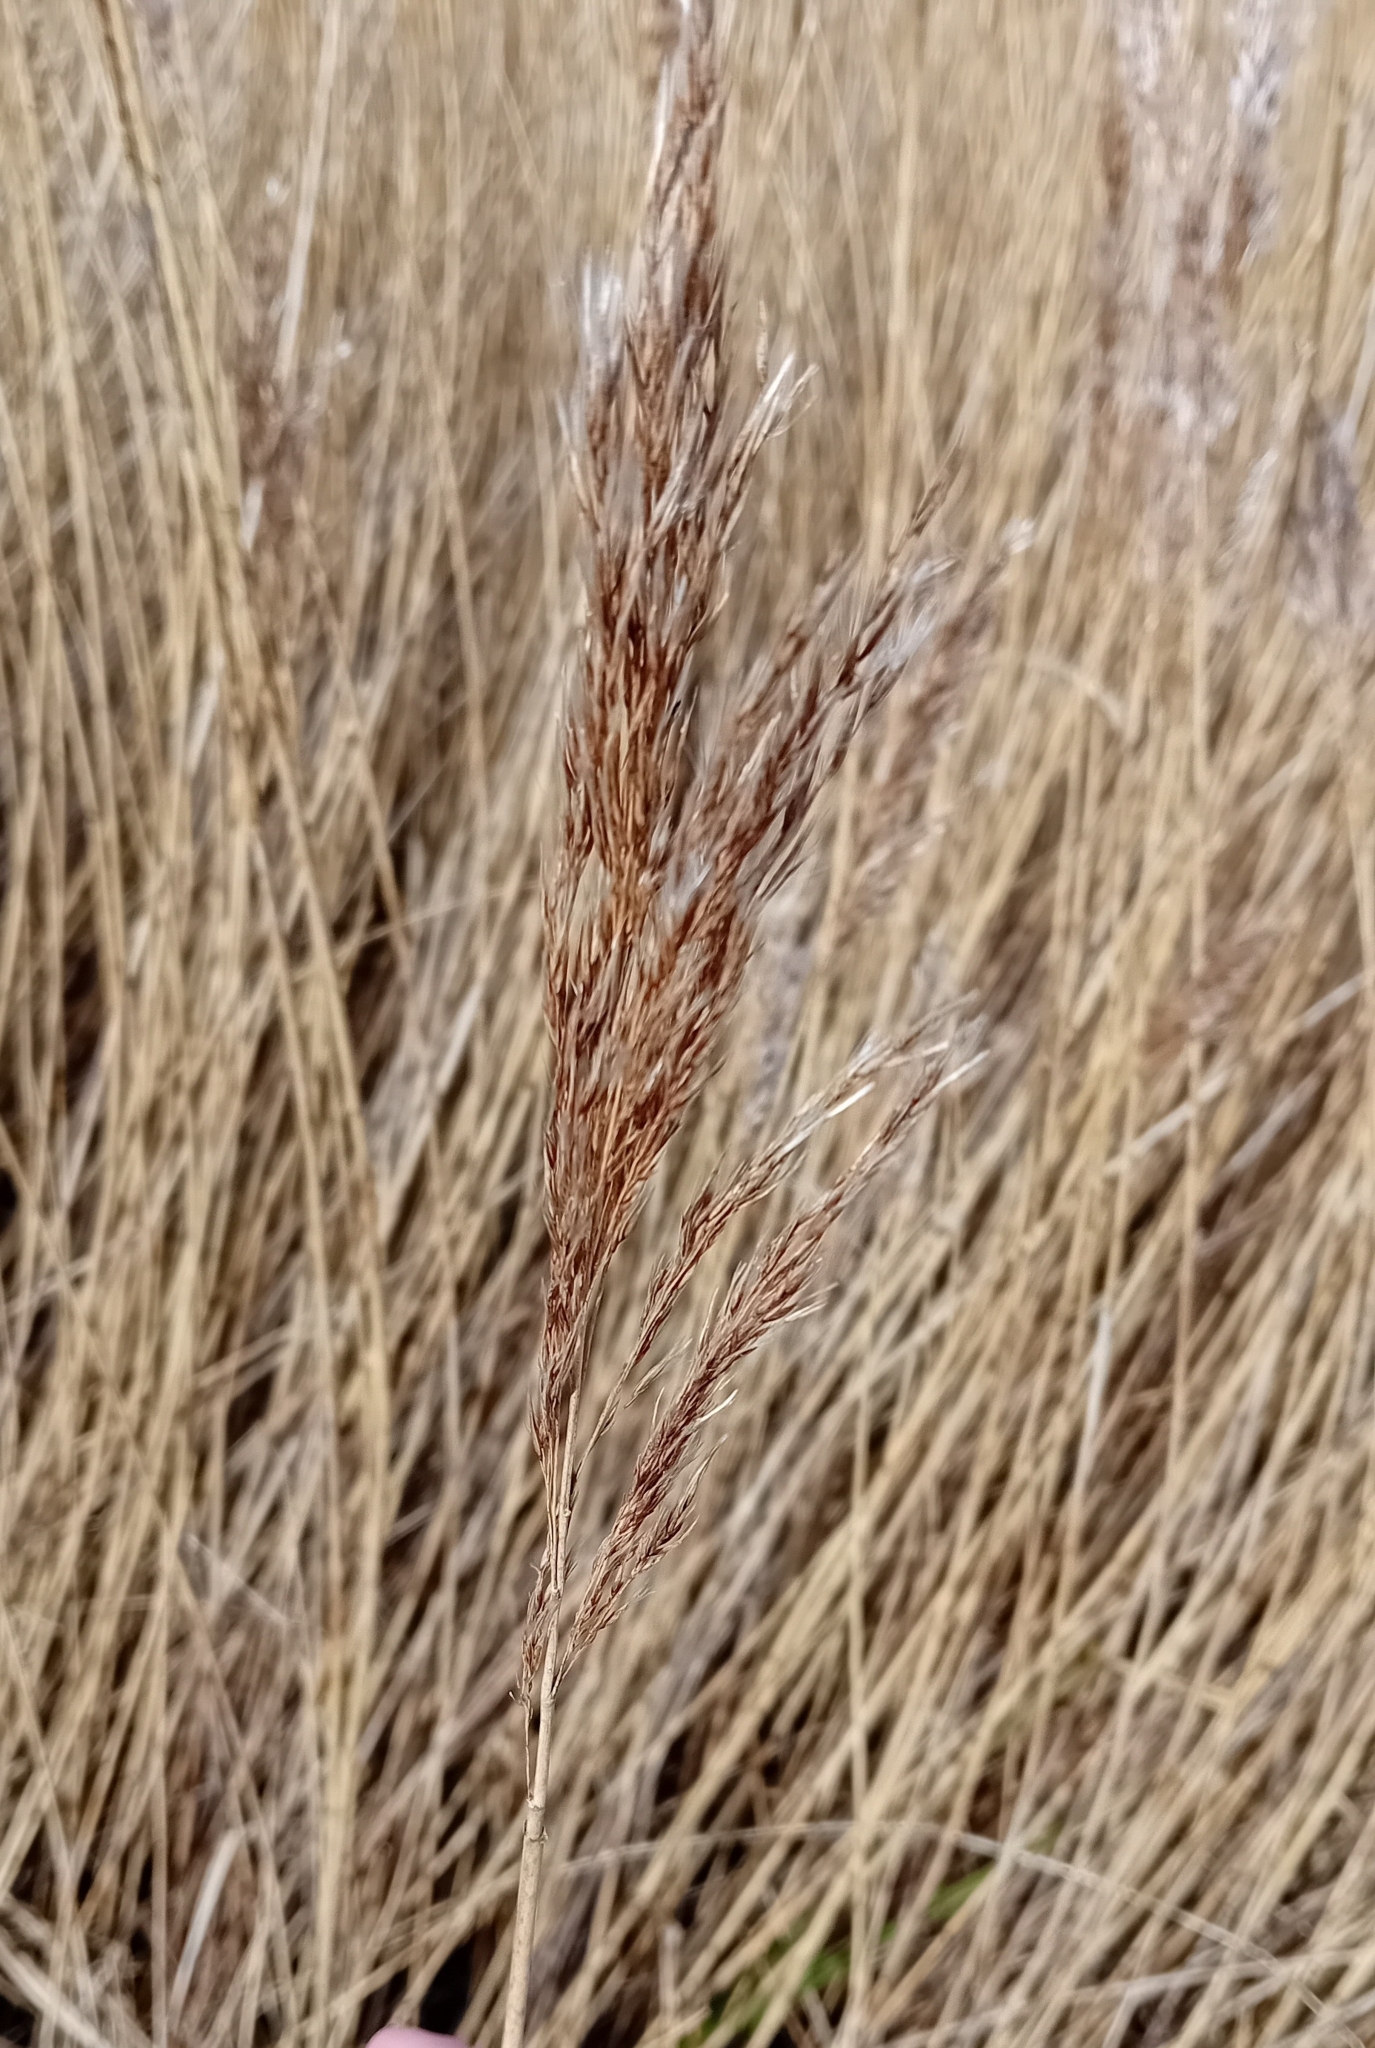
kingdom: Plantae
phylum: Tracheophyta
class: Liliopsida
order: Poales
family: Poaceae
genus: Phragmites
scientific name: Phragmites australis
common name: Common reed
